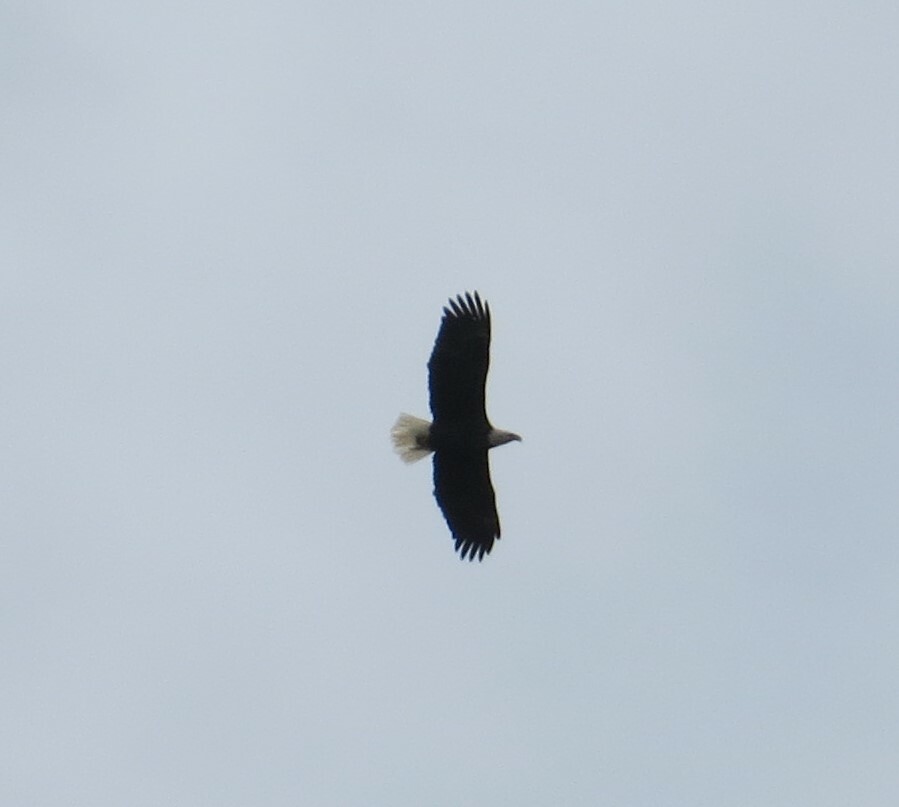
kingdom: Animalia
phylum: Chordata
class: Aves
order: Accipitriformes
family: Accipitridae
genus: Haliaeetus
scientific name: Haliaeetus leucocephalus
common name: Bald eagle
